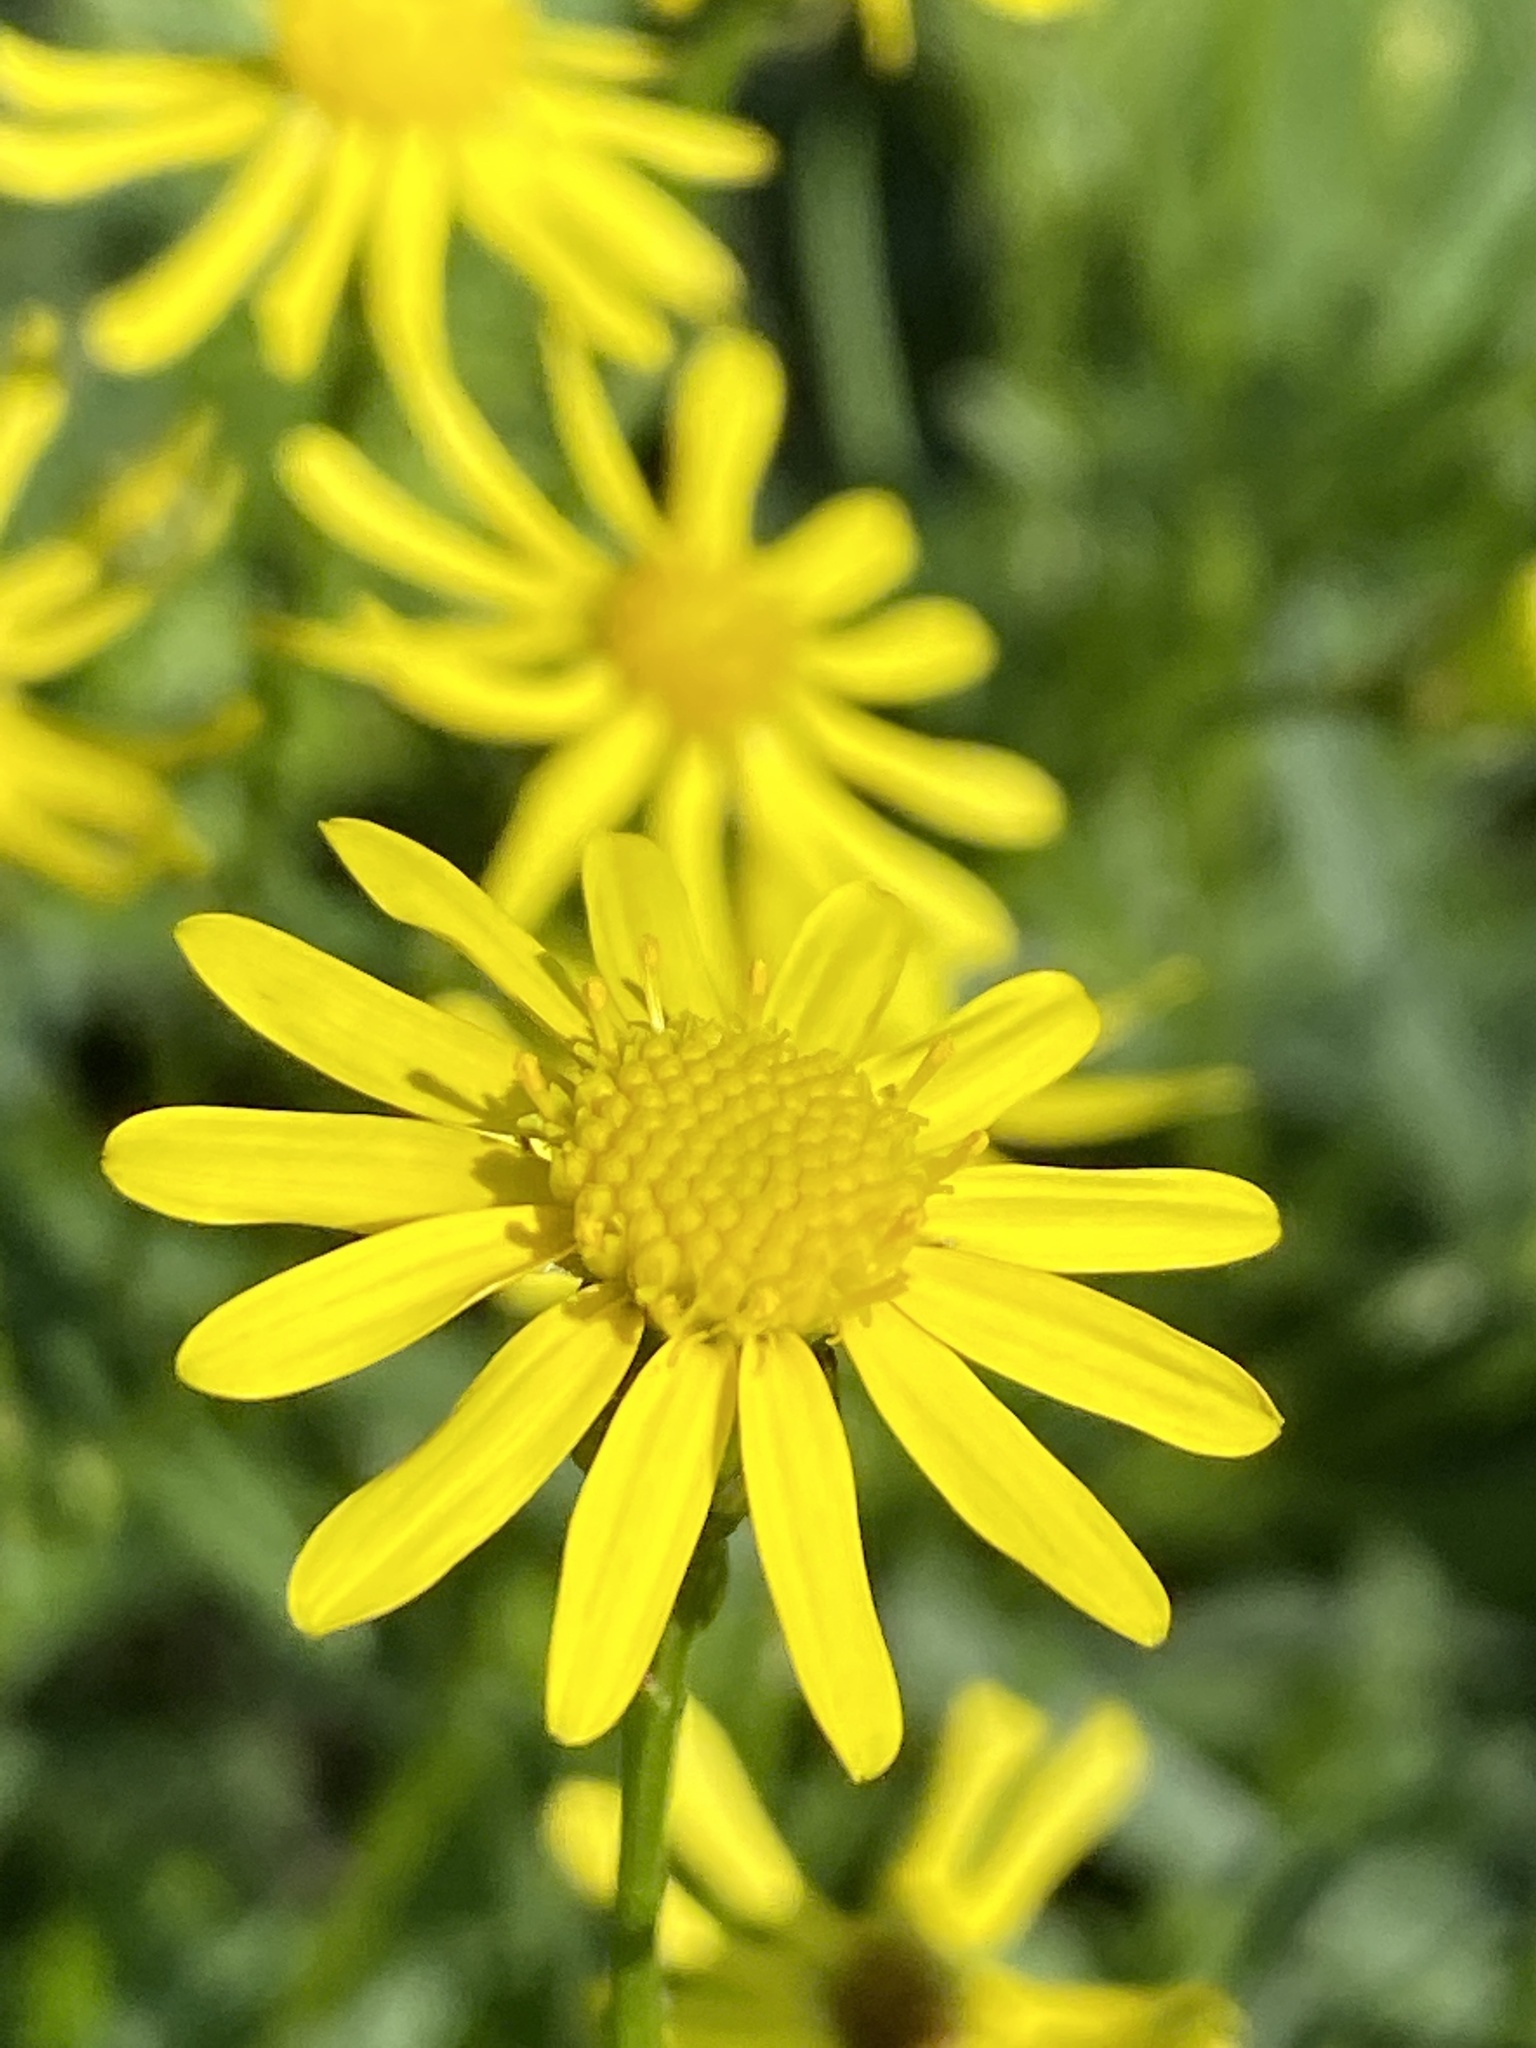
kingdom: Plantae
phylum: Tracheophyta
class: Magnoliopsida
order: Asterales
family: Asteraceae
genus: Senecio
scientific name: Senecio inaequidens
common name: Narrow-leaved ragwort
